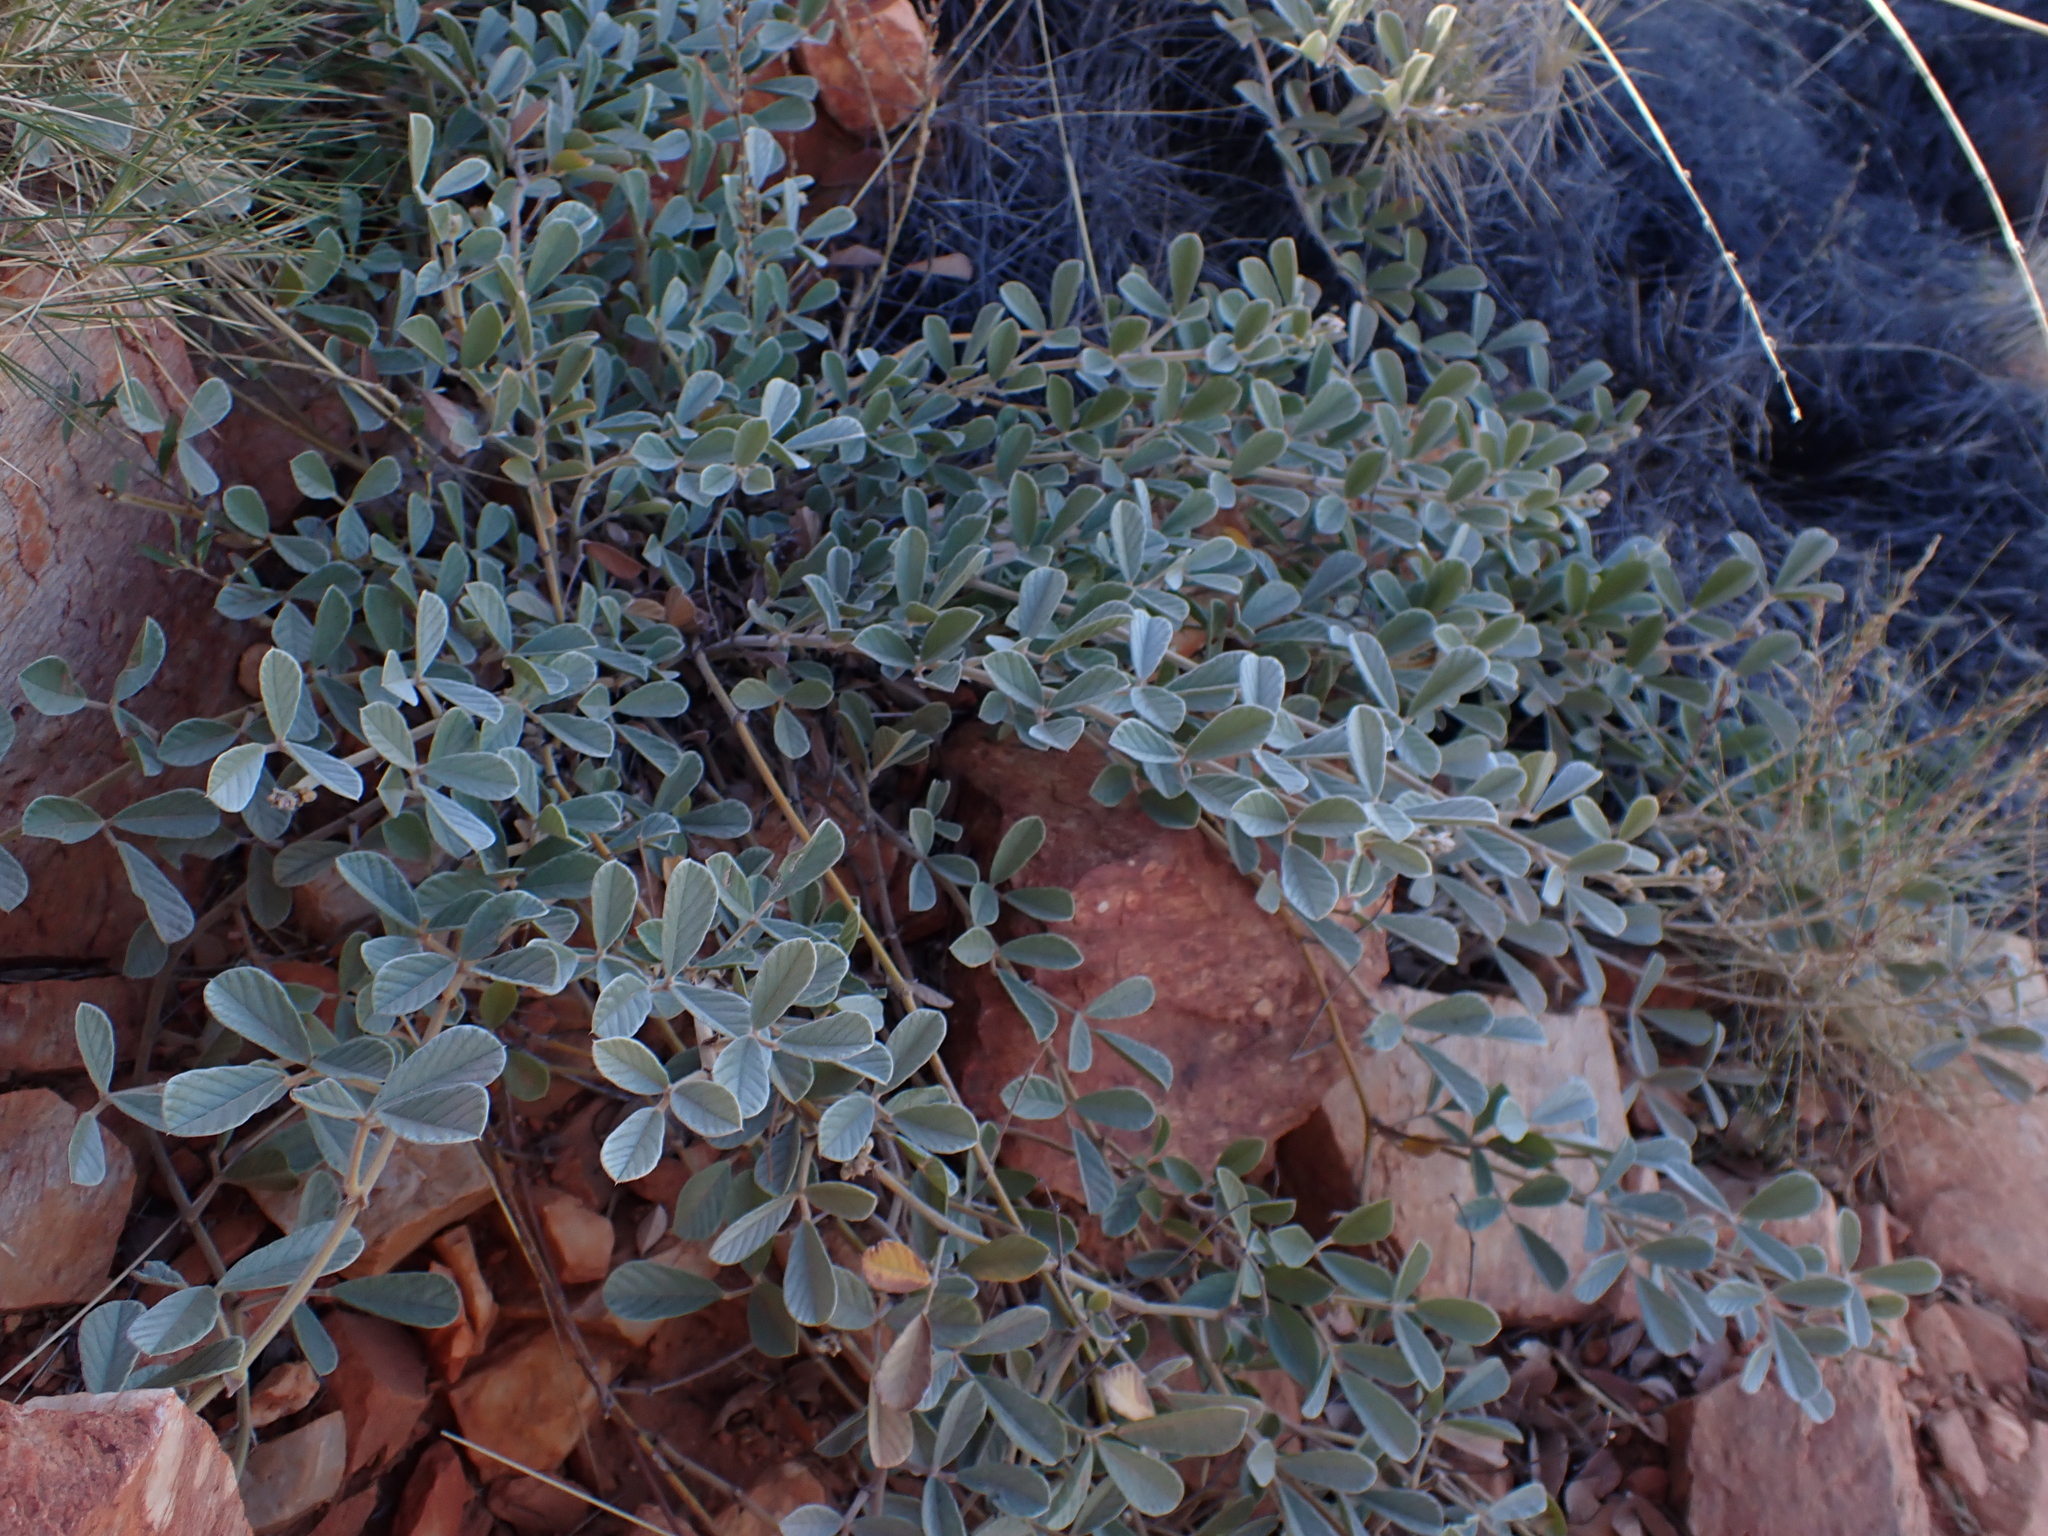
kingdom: Plantae
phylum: Tracheophyta
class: Magnoliopsida
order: Fabales
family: Fabaceae
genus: Kennedia
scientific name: Kennedia prorepens
